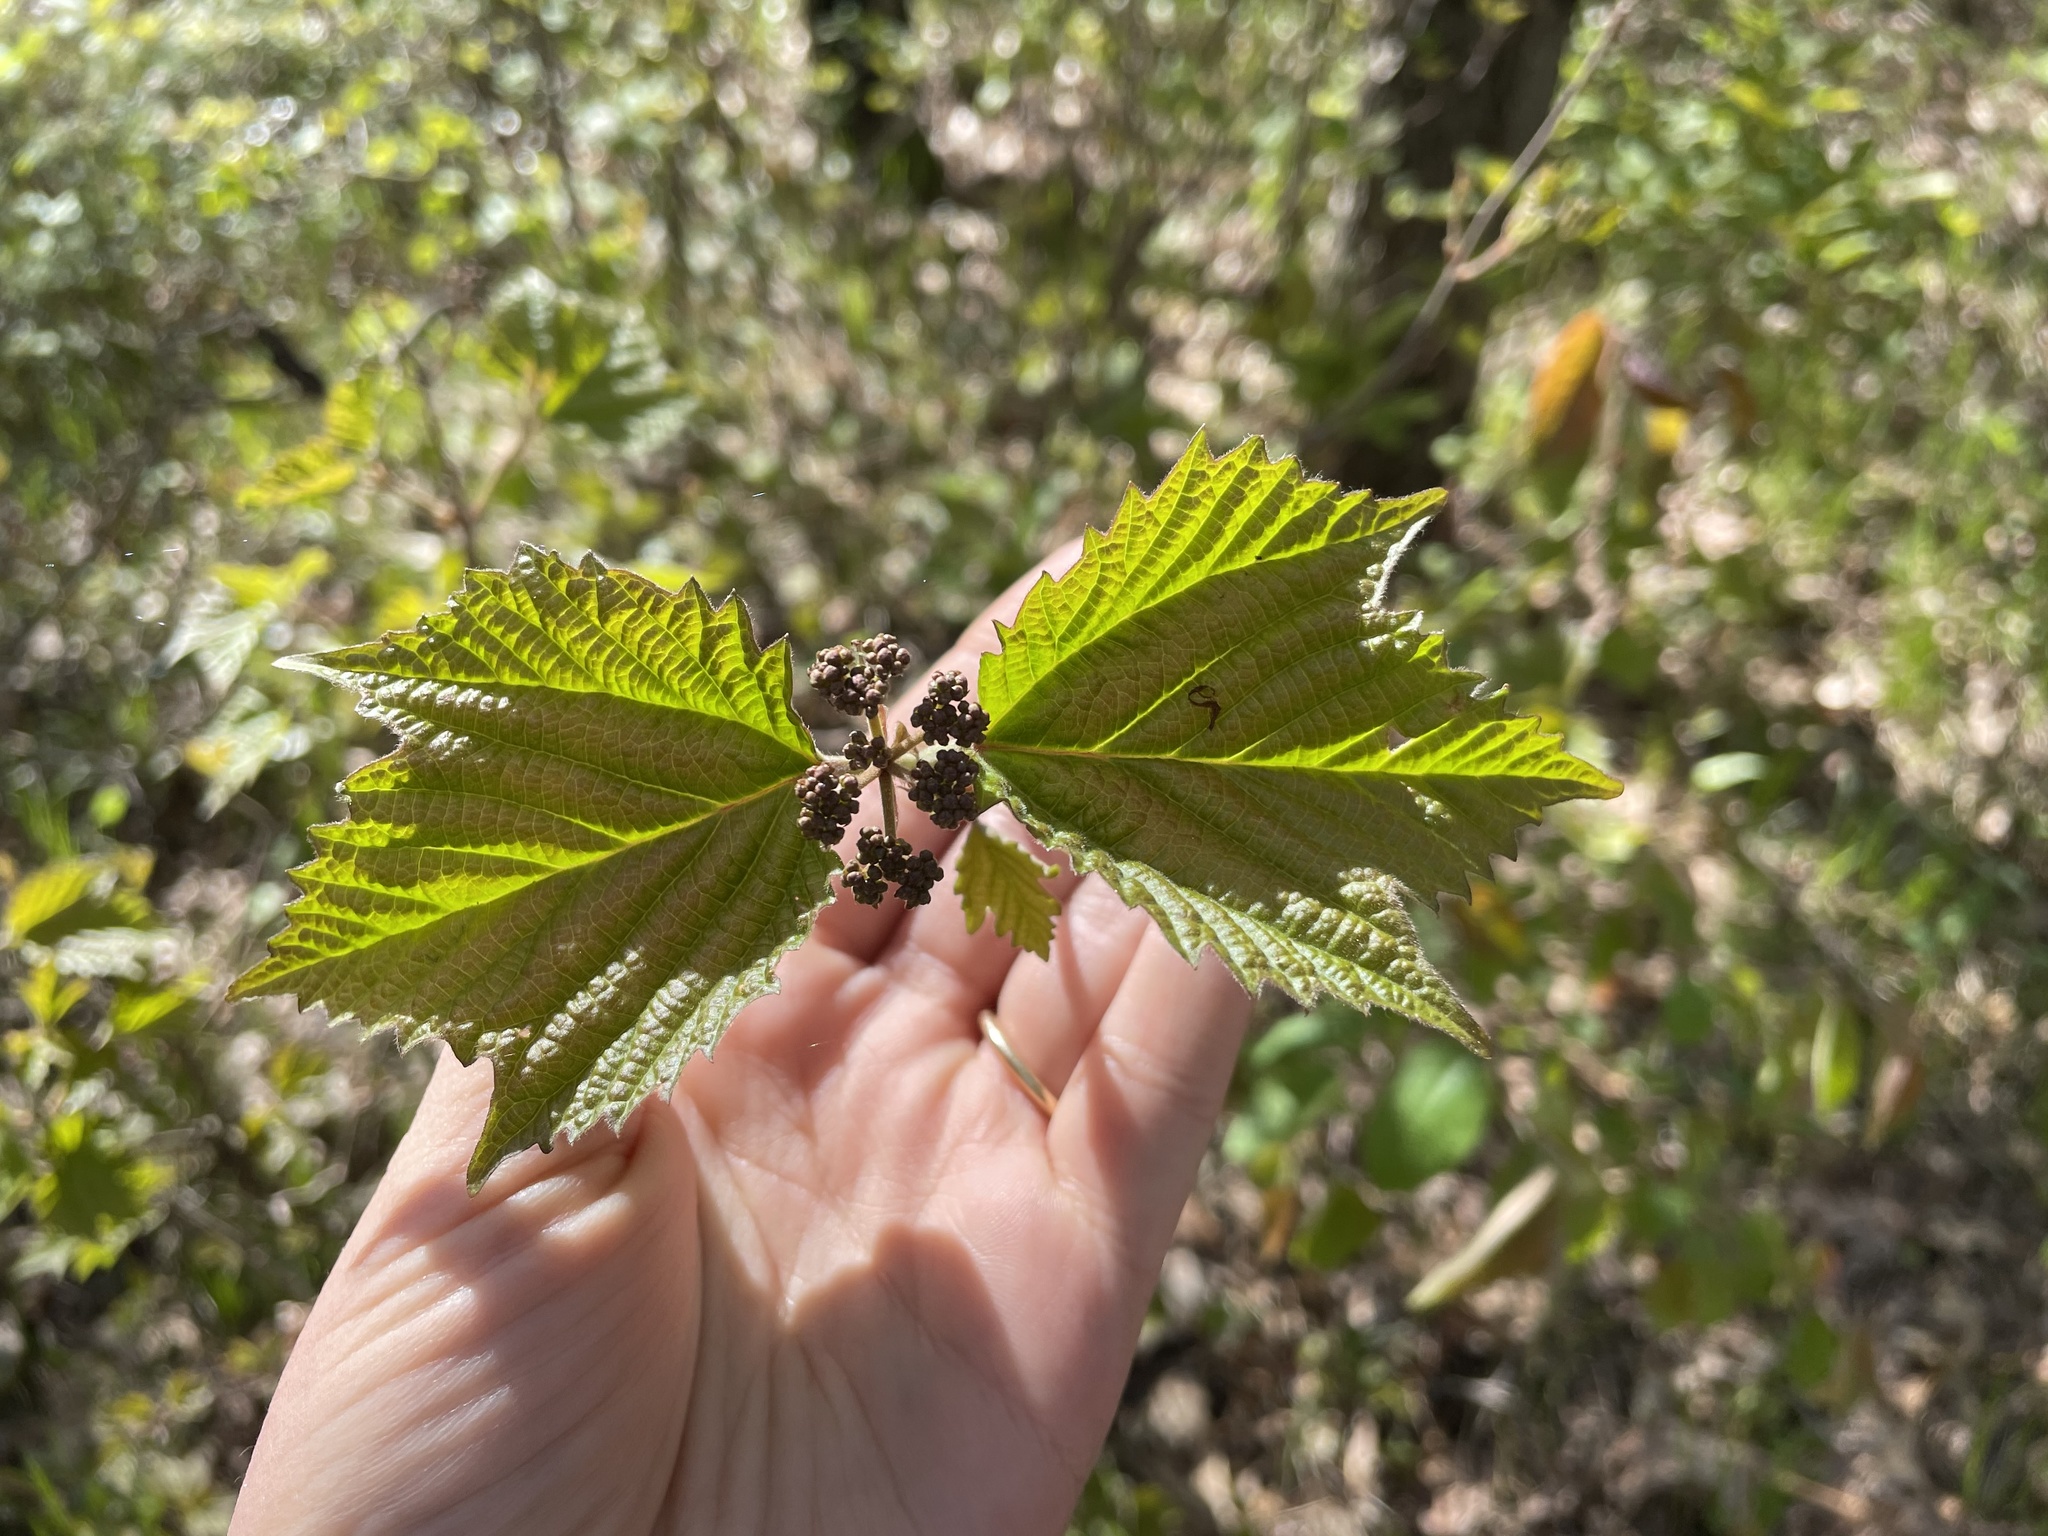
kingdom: Plantae
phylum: Tracheophyta
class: Magnoliopsida
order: Dipsacales
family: Viburnaceae
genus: Viburnum
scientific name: Viburnum acerifolium
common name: Dockmackie
